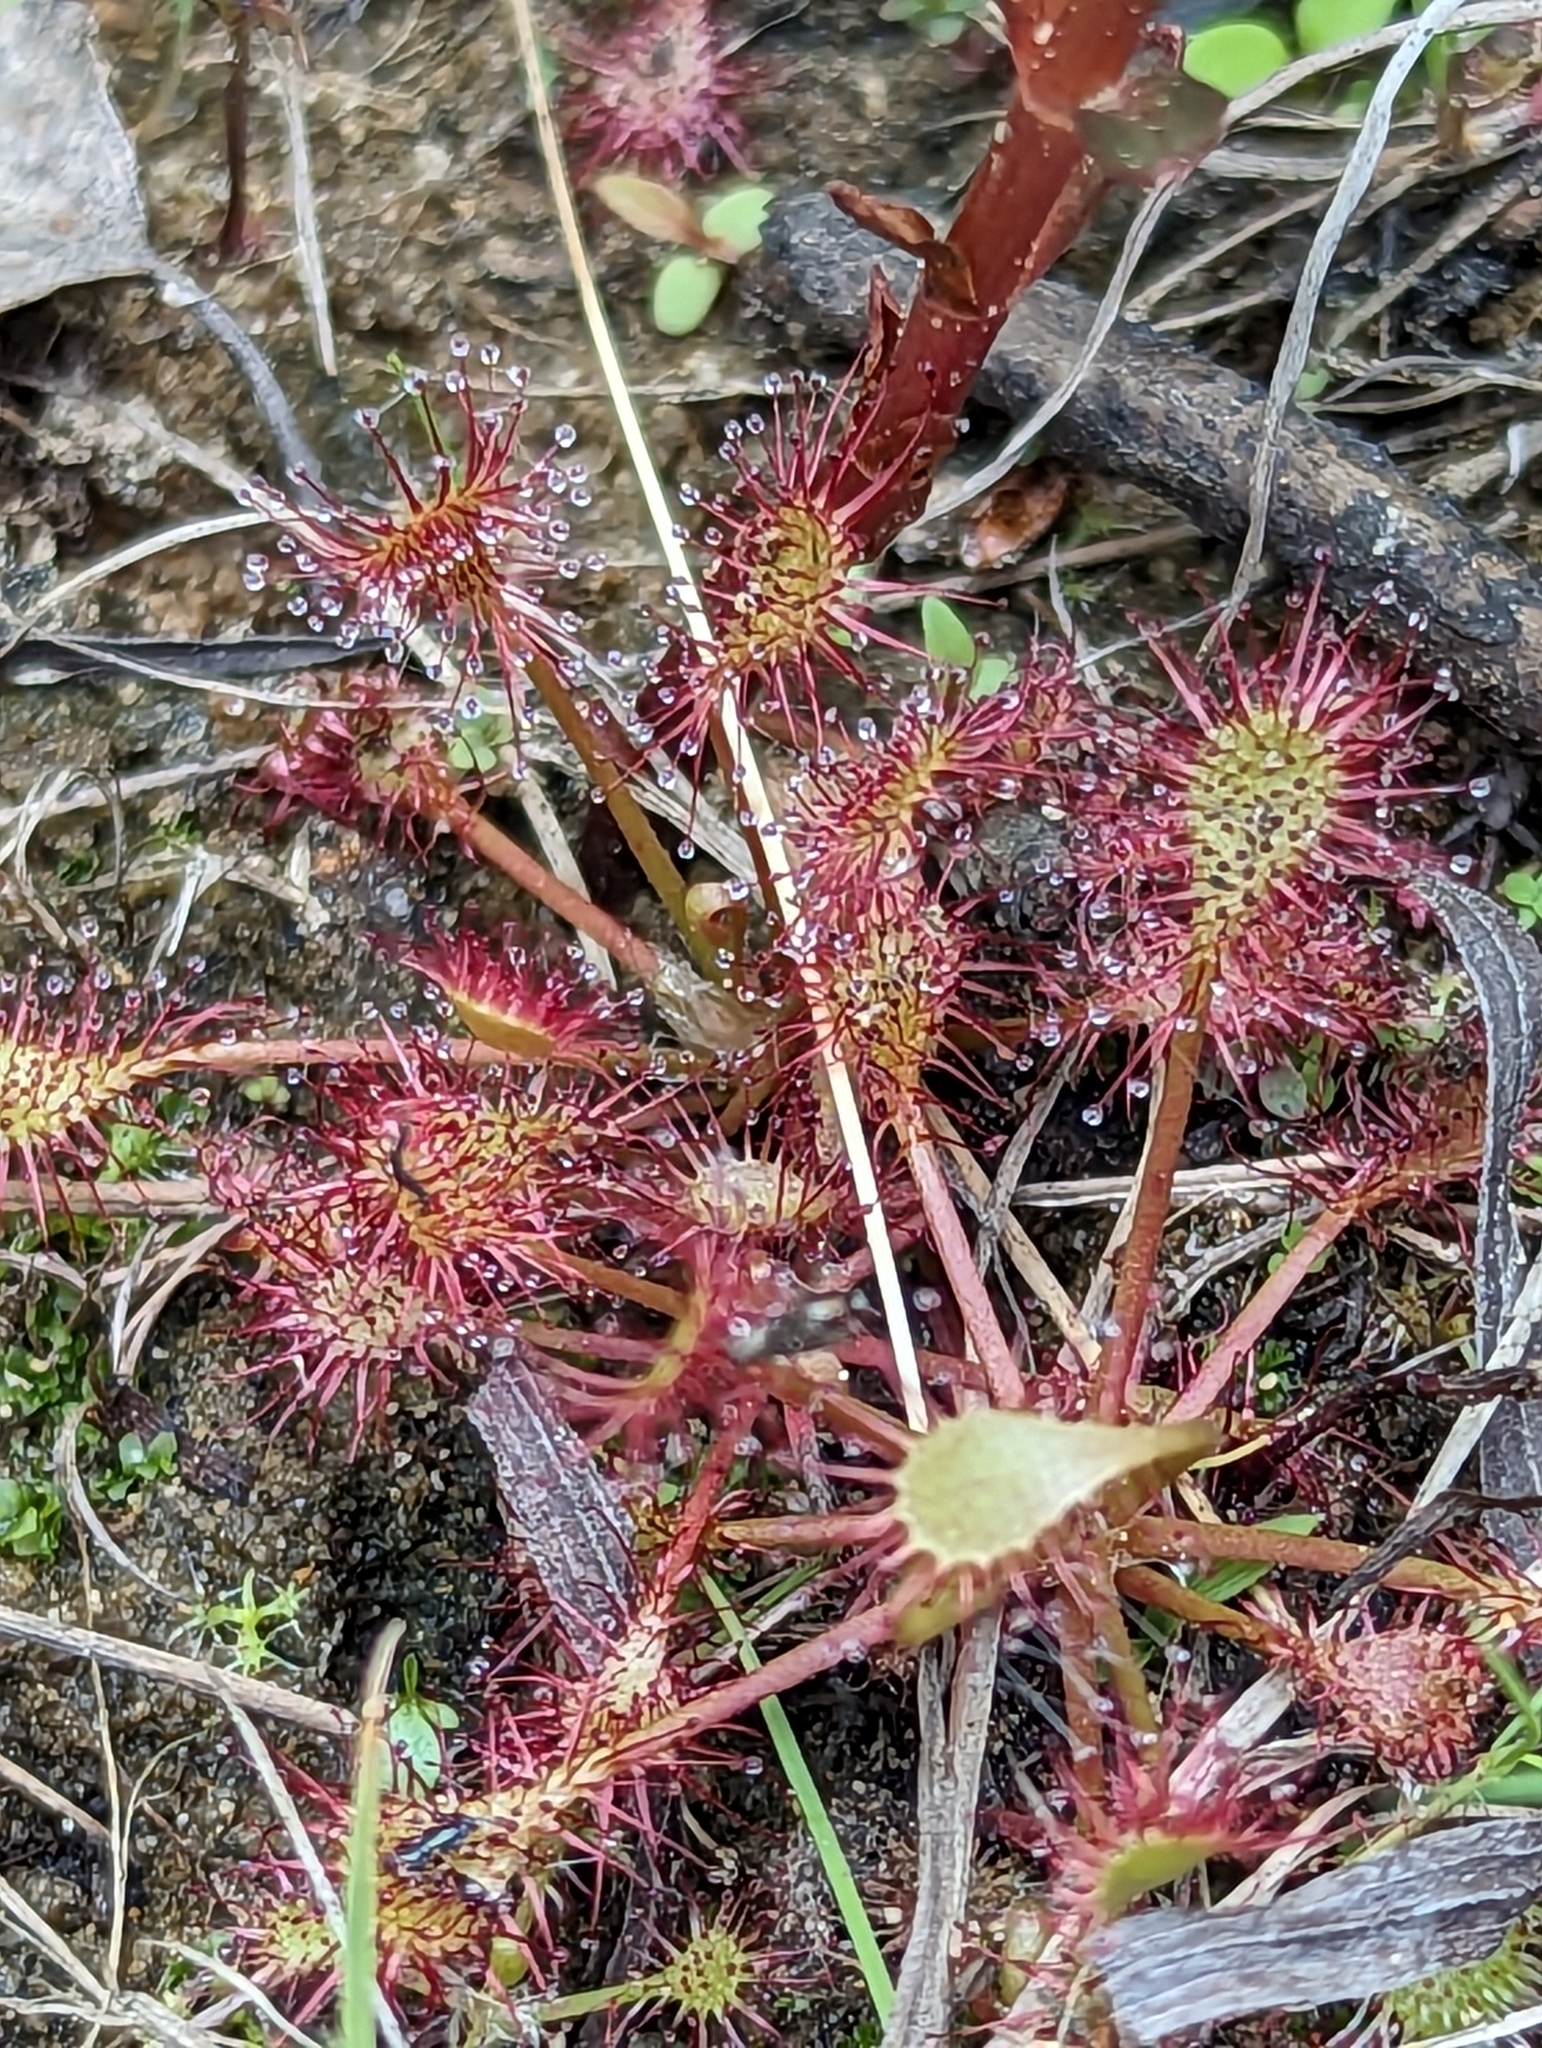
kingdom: Plantae
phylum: Tracheophyta
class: Magnoliopsida
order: Caryophyllales
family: Droseraceae
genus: Drosera
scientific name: Drosera intermedia
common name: Oblong-leaved sundew
